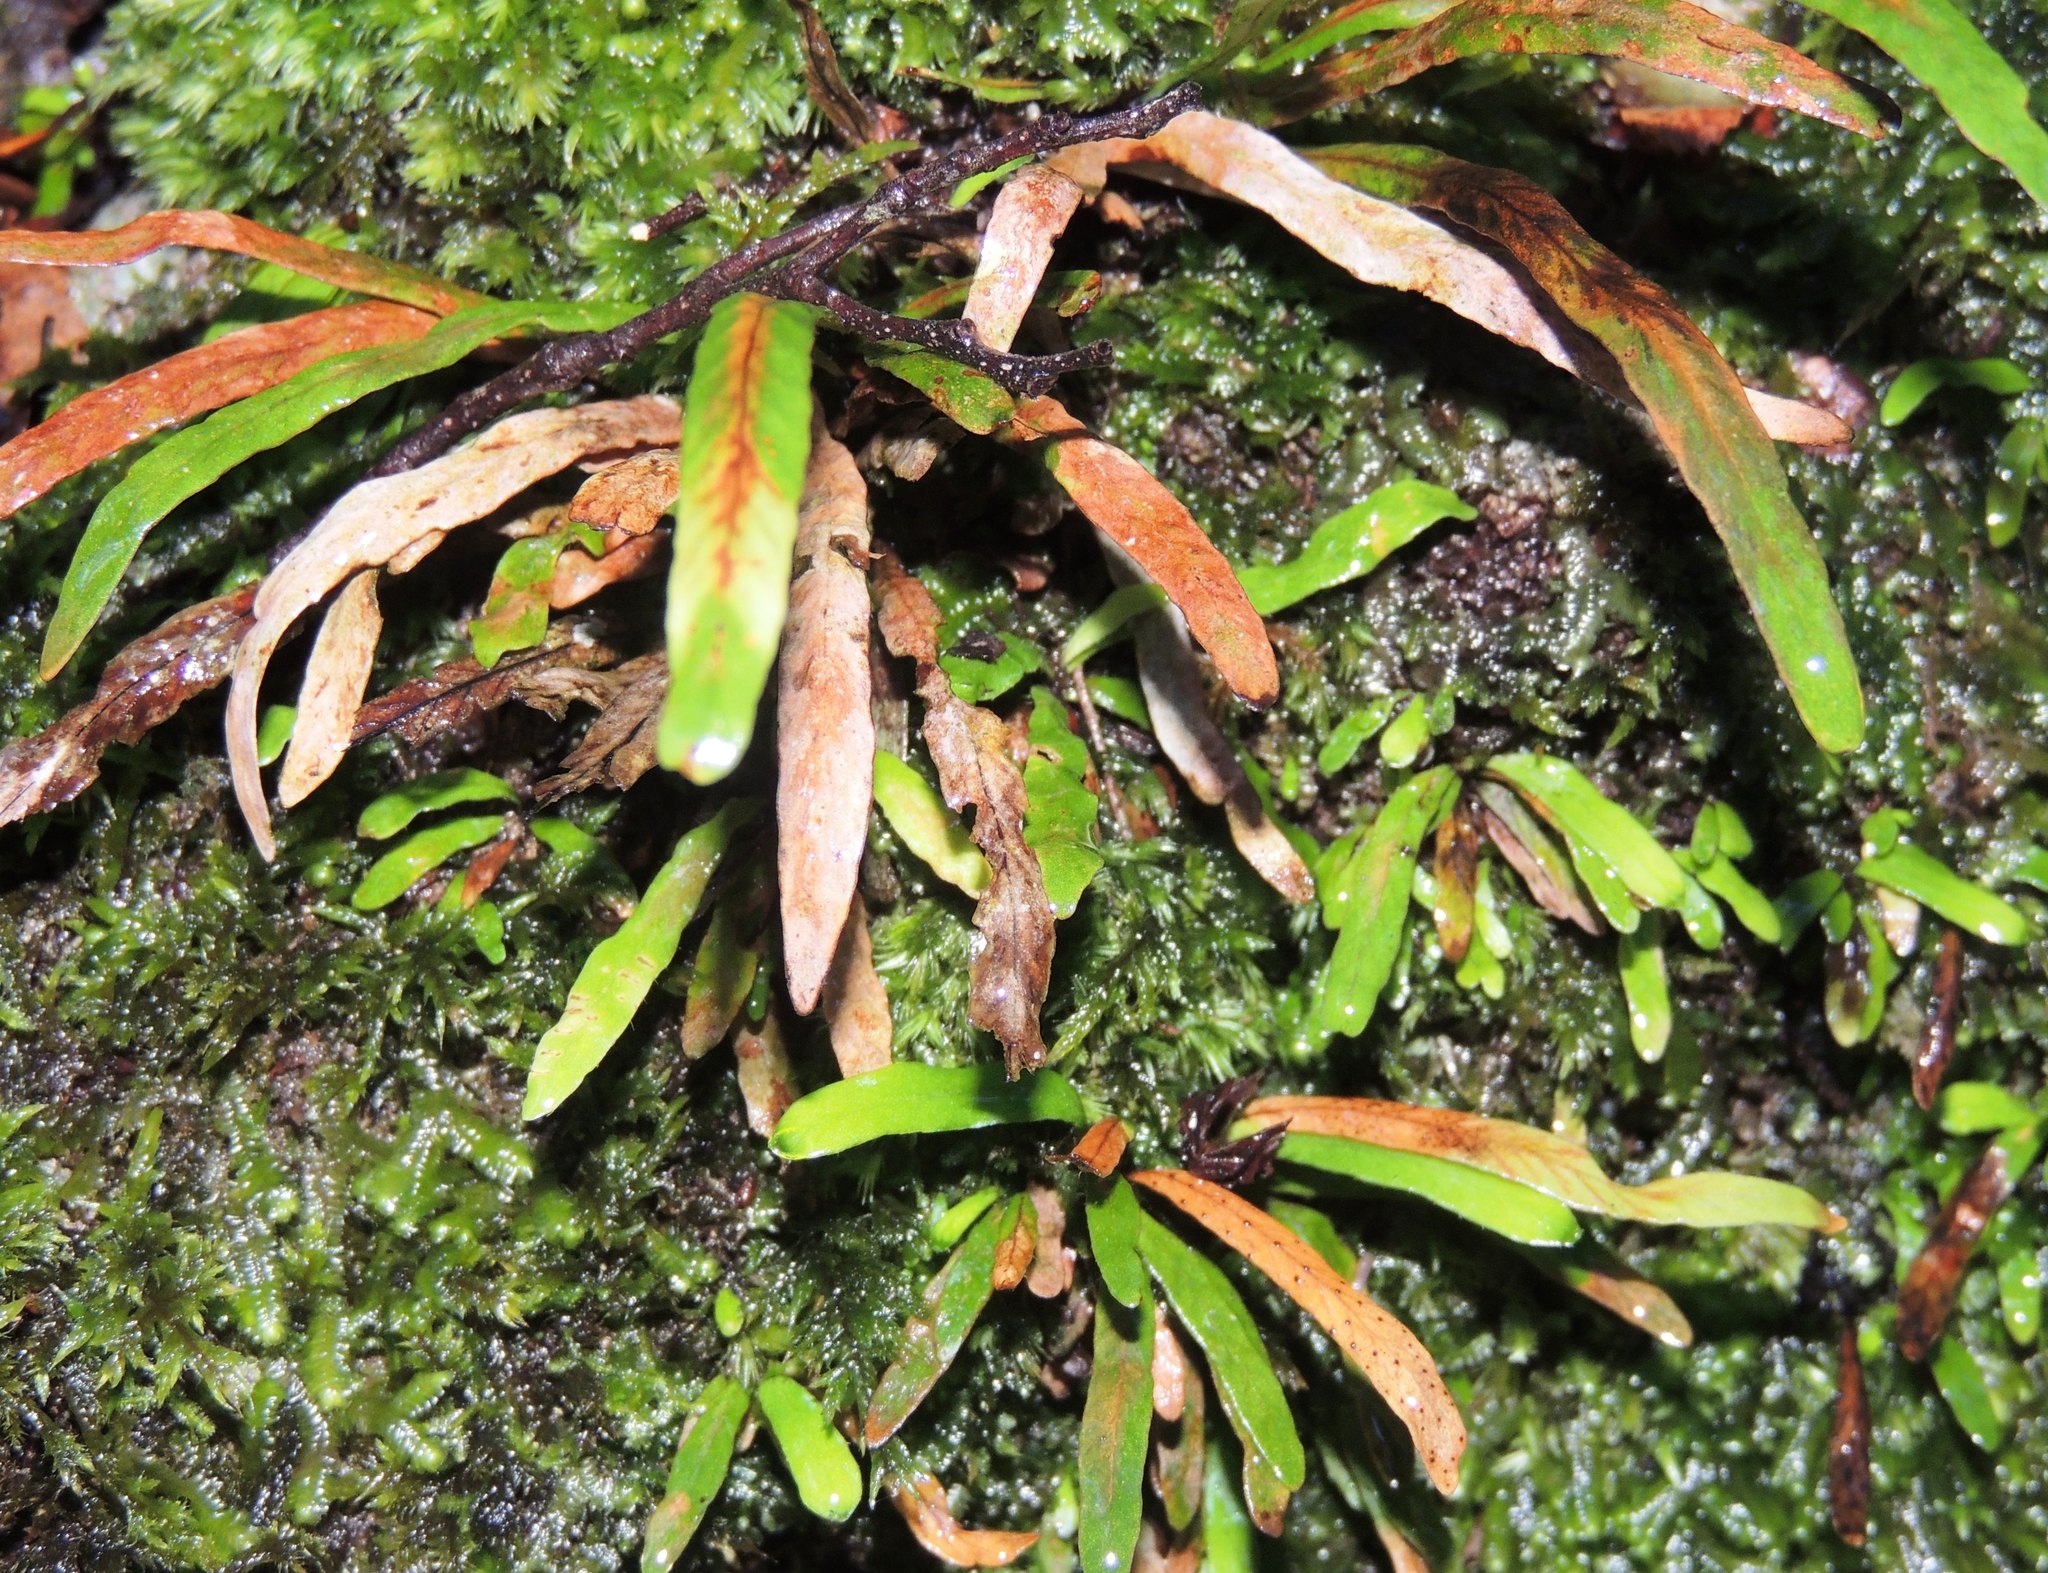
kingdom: Plantae
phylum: Tracheophyta
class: Polypodiopsida
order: Polypodiales
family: Polypodiaceae
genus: Notogrammitis
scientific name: Notogrammitis billardierei
